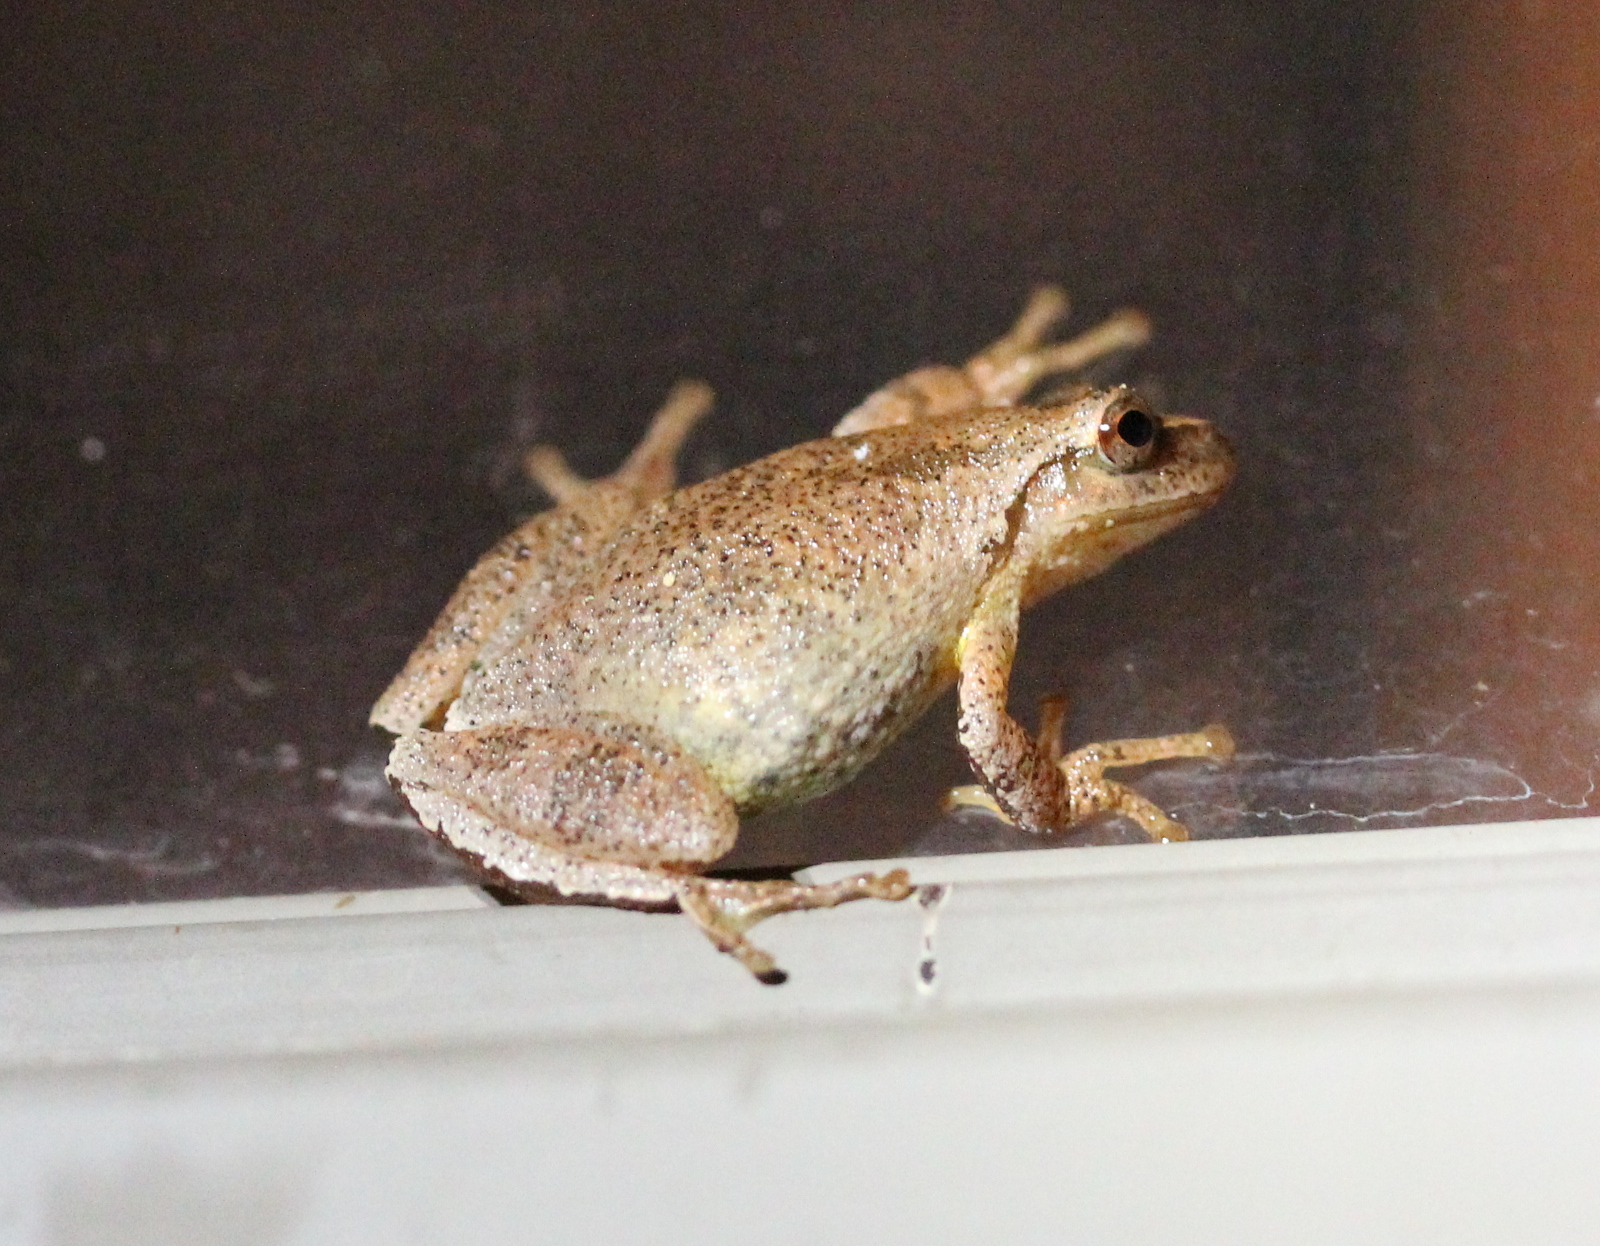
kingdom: Animalia
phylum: Chordata
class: Amphibia
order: Anura
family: Hylidae
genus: Pseudacris
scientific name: Pseudacris crucifer
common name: Spring peeper
